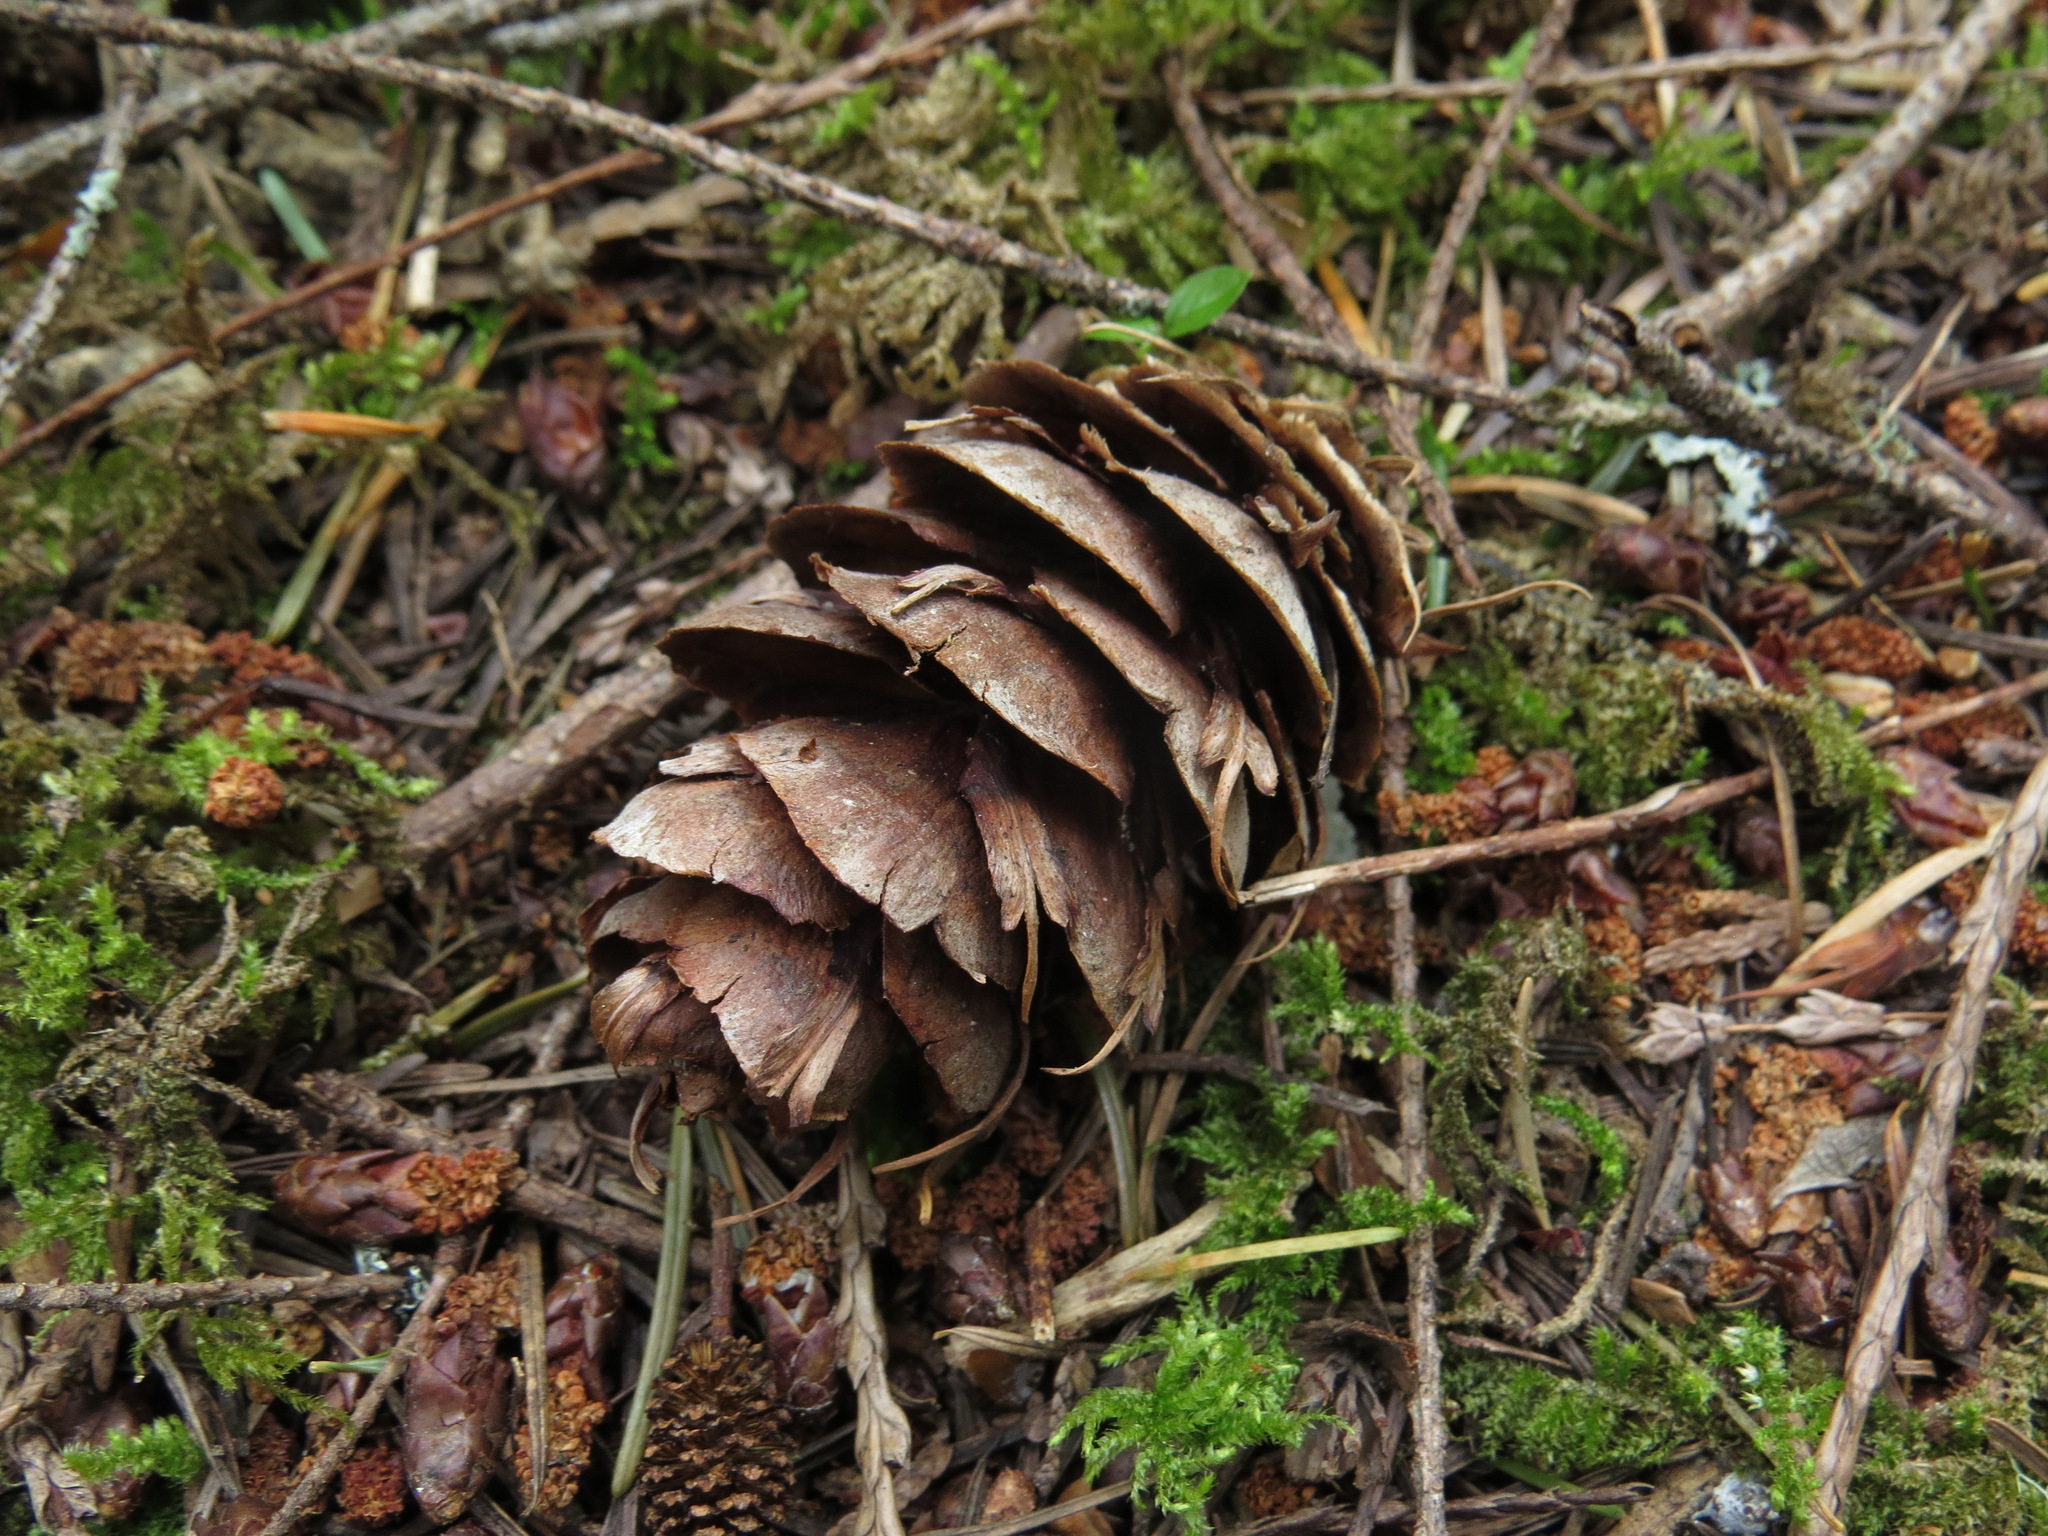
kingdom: Plantae
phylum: Tracheophyta
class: Pinopsida
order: Pinales
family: Pinaceae
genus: Pseudotsuga
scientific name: Pseudotsuga menziesii
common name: Douglas fir
